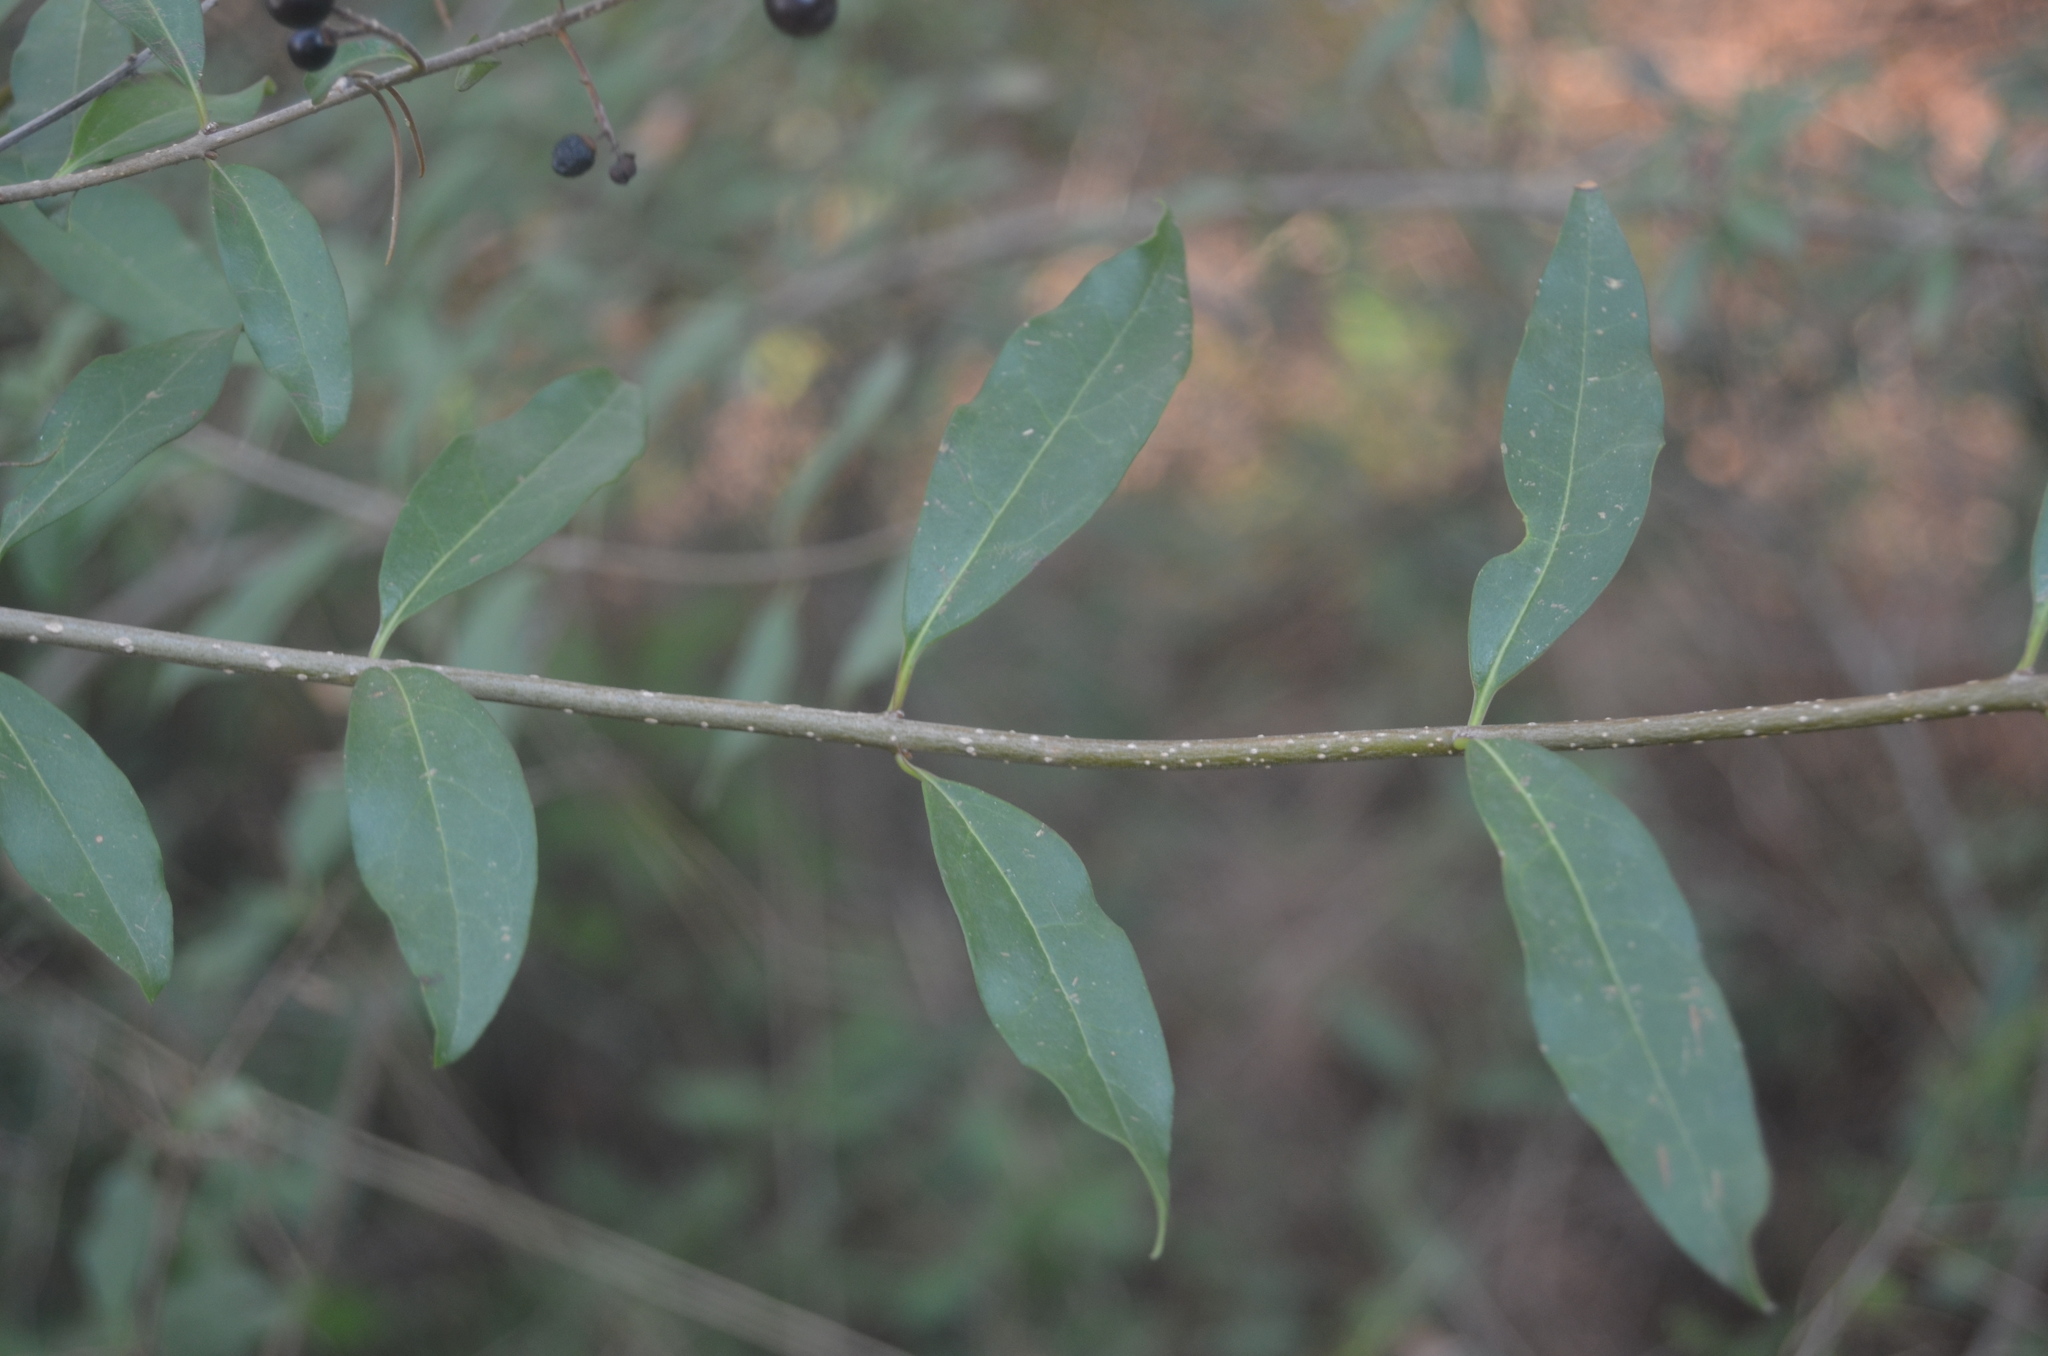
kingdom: Plantae
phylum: Tracheophyta
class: Magnoliopsida
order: Lamiales
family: Oleaceae
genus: Ligustrum
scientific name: Ligustrum vulgare
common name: Wild privet
